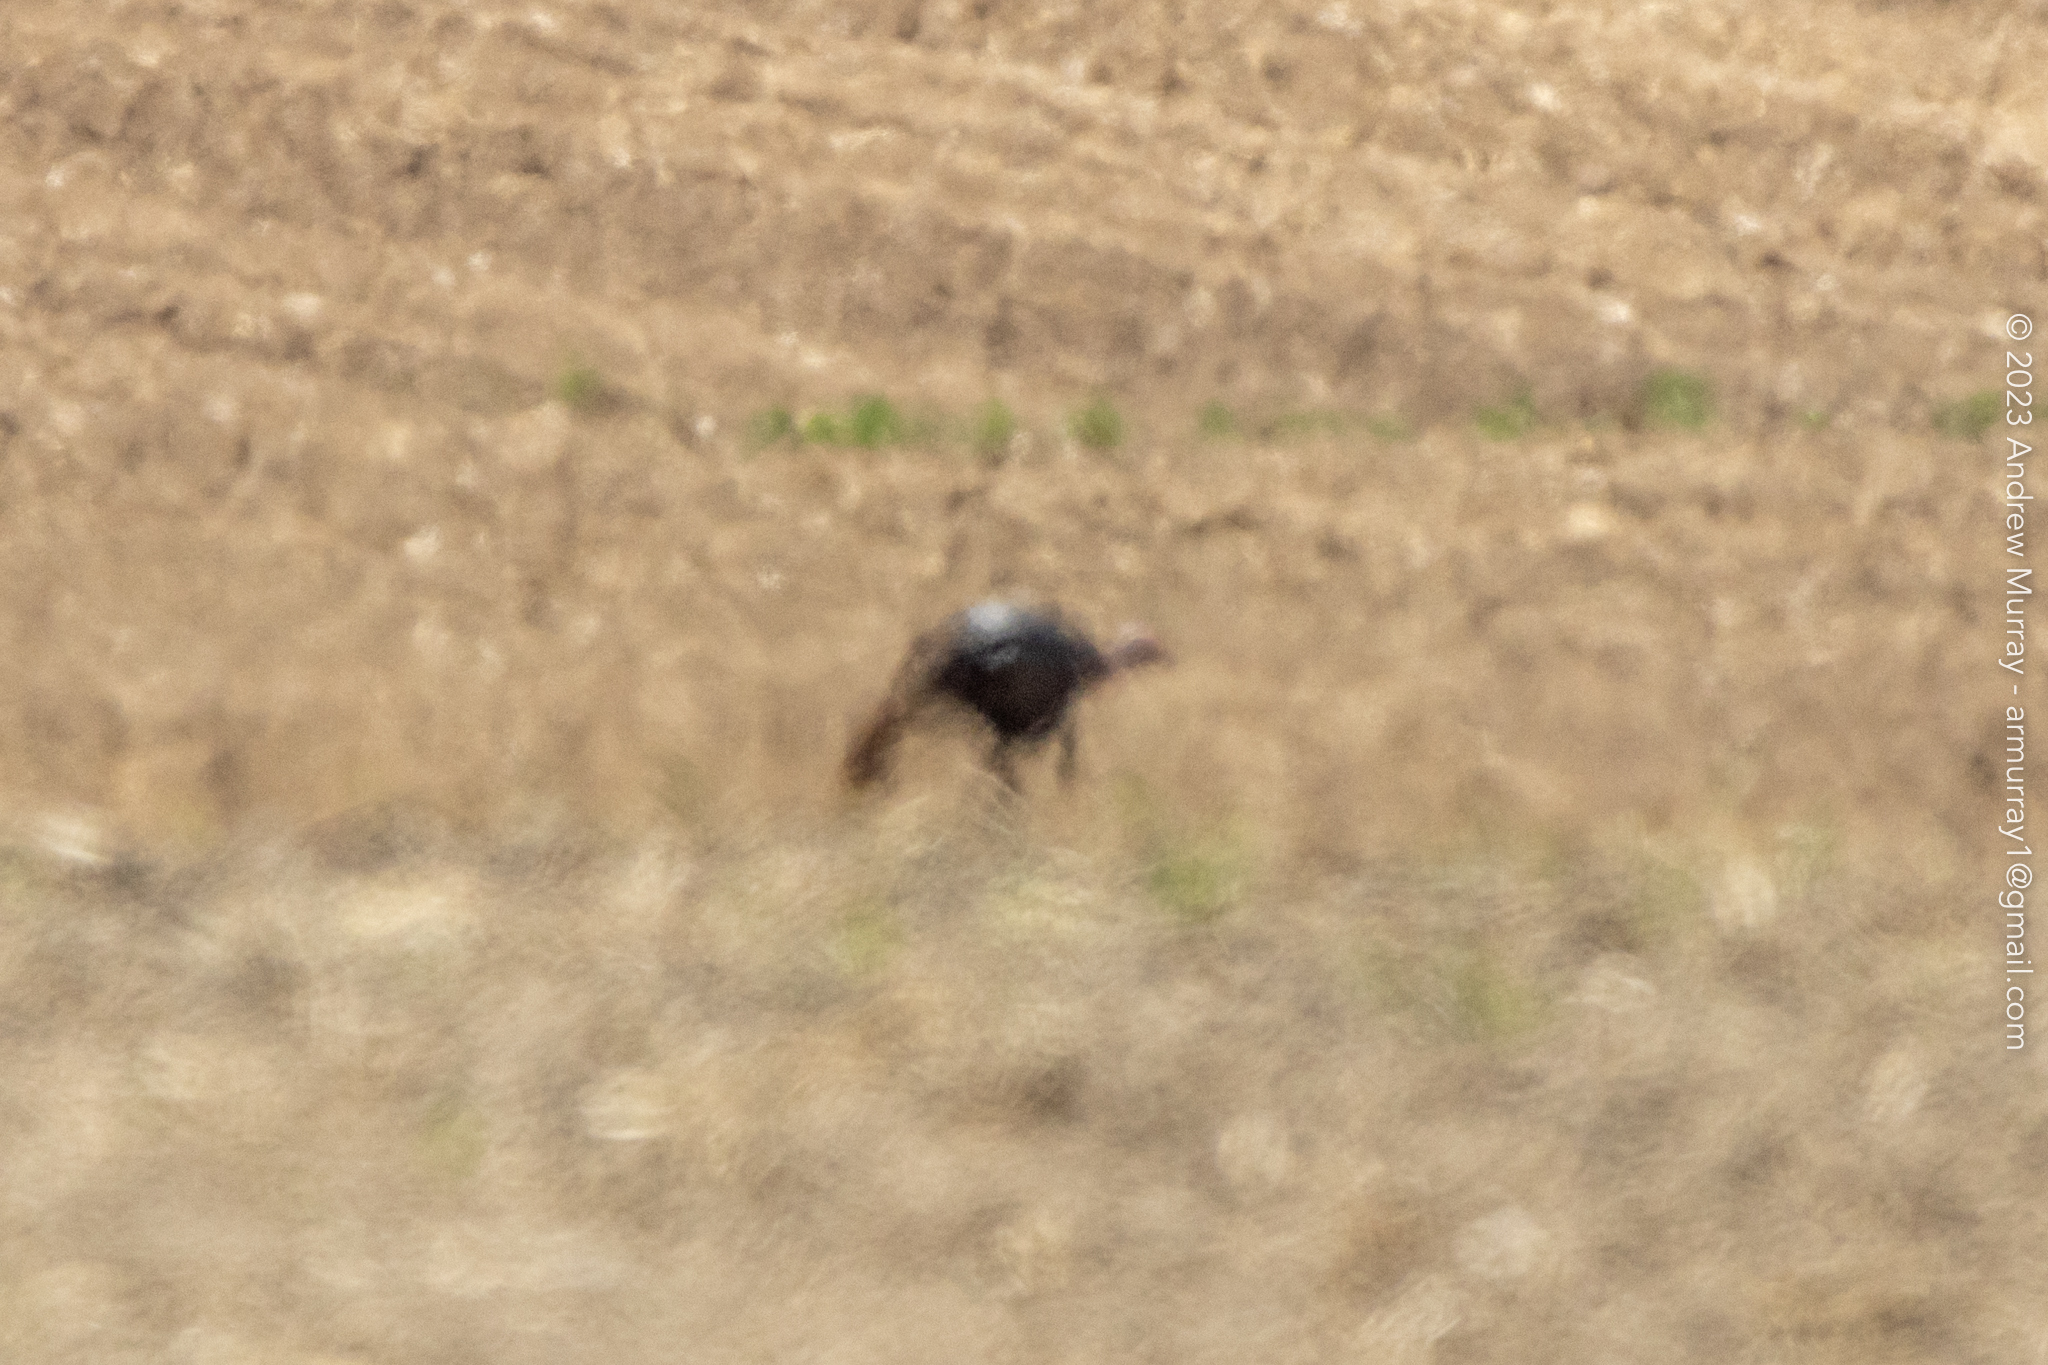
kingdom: Animalia
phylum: Chordata
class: Aves
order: Galliformes
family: Phasianidae
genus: Meleagris
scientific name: Meleagris gallopavo
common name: Wild turkey
